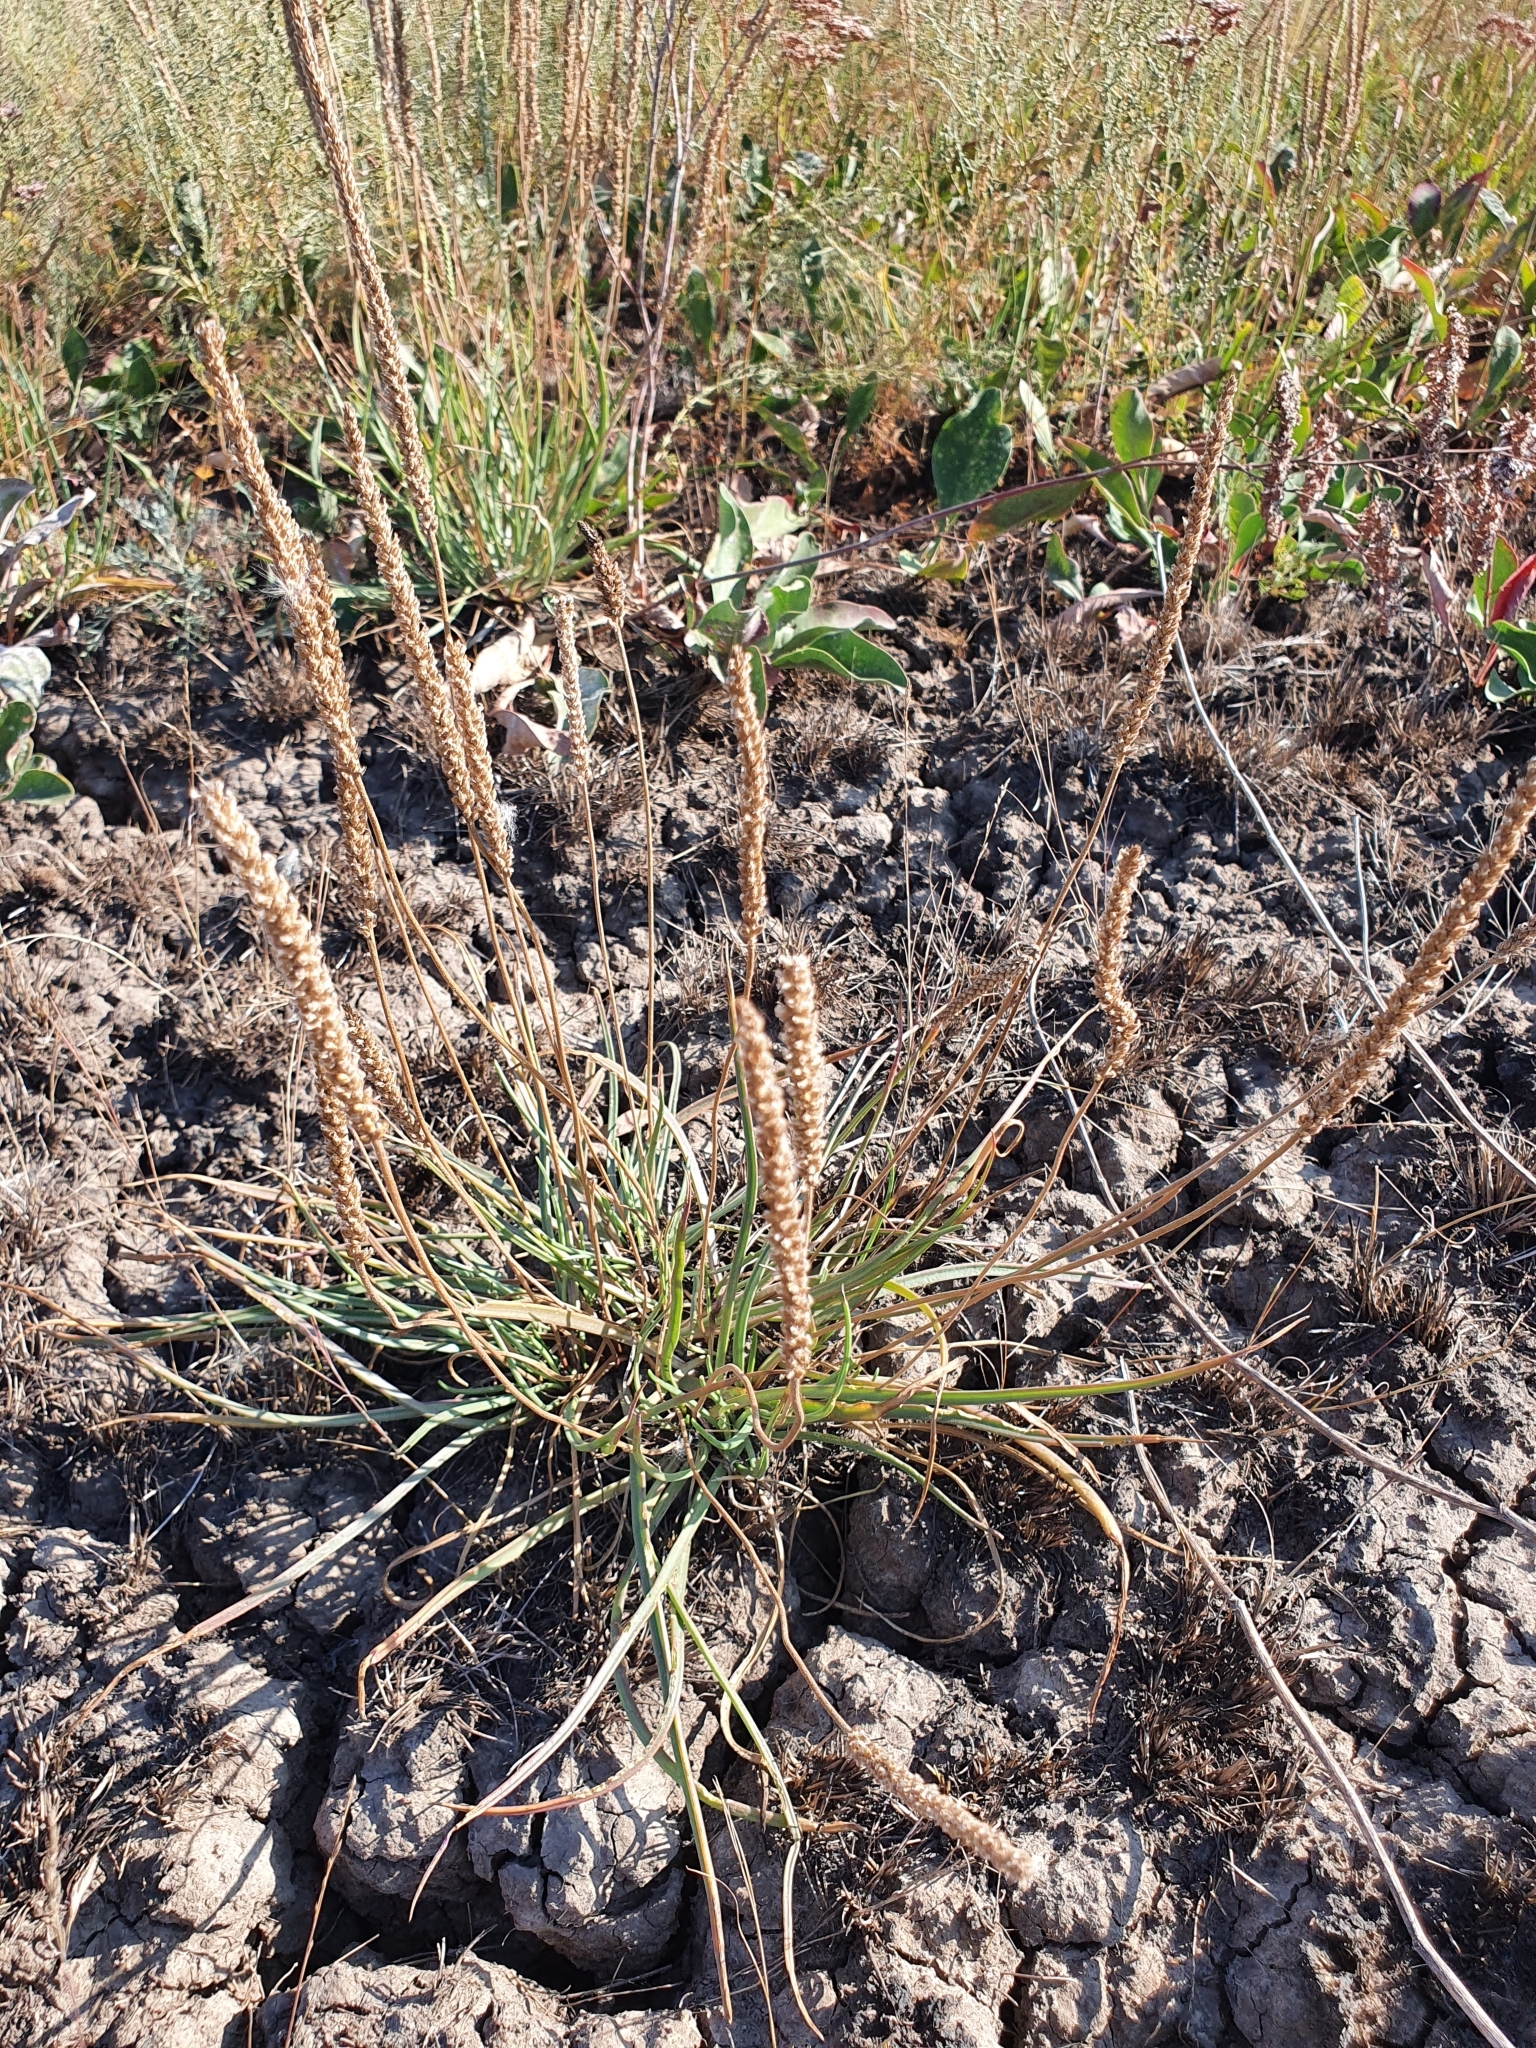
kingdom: Plantae
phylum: Tracheophyta
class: Magnoliopsida
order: Lamiales
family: Plantaginaceae
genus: Plantago
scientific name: Plantago salsa
